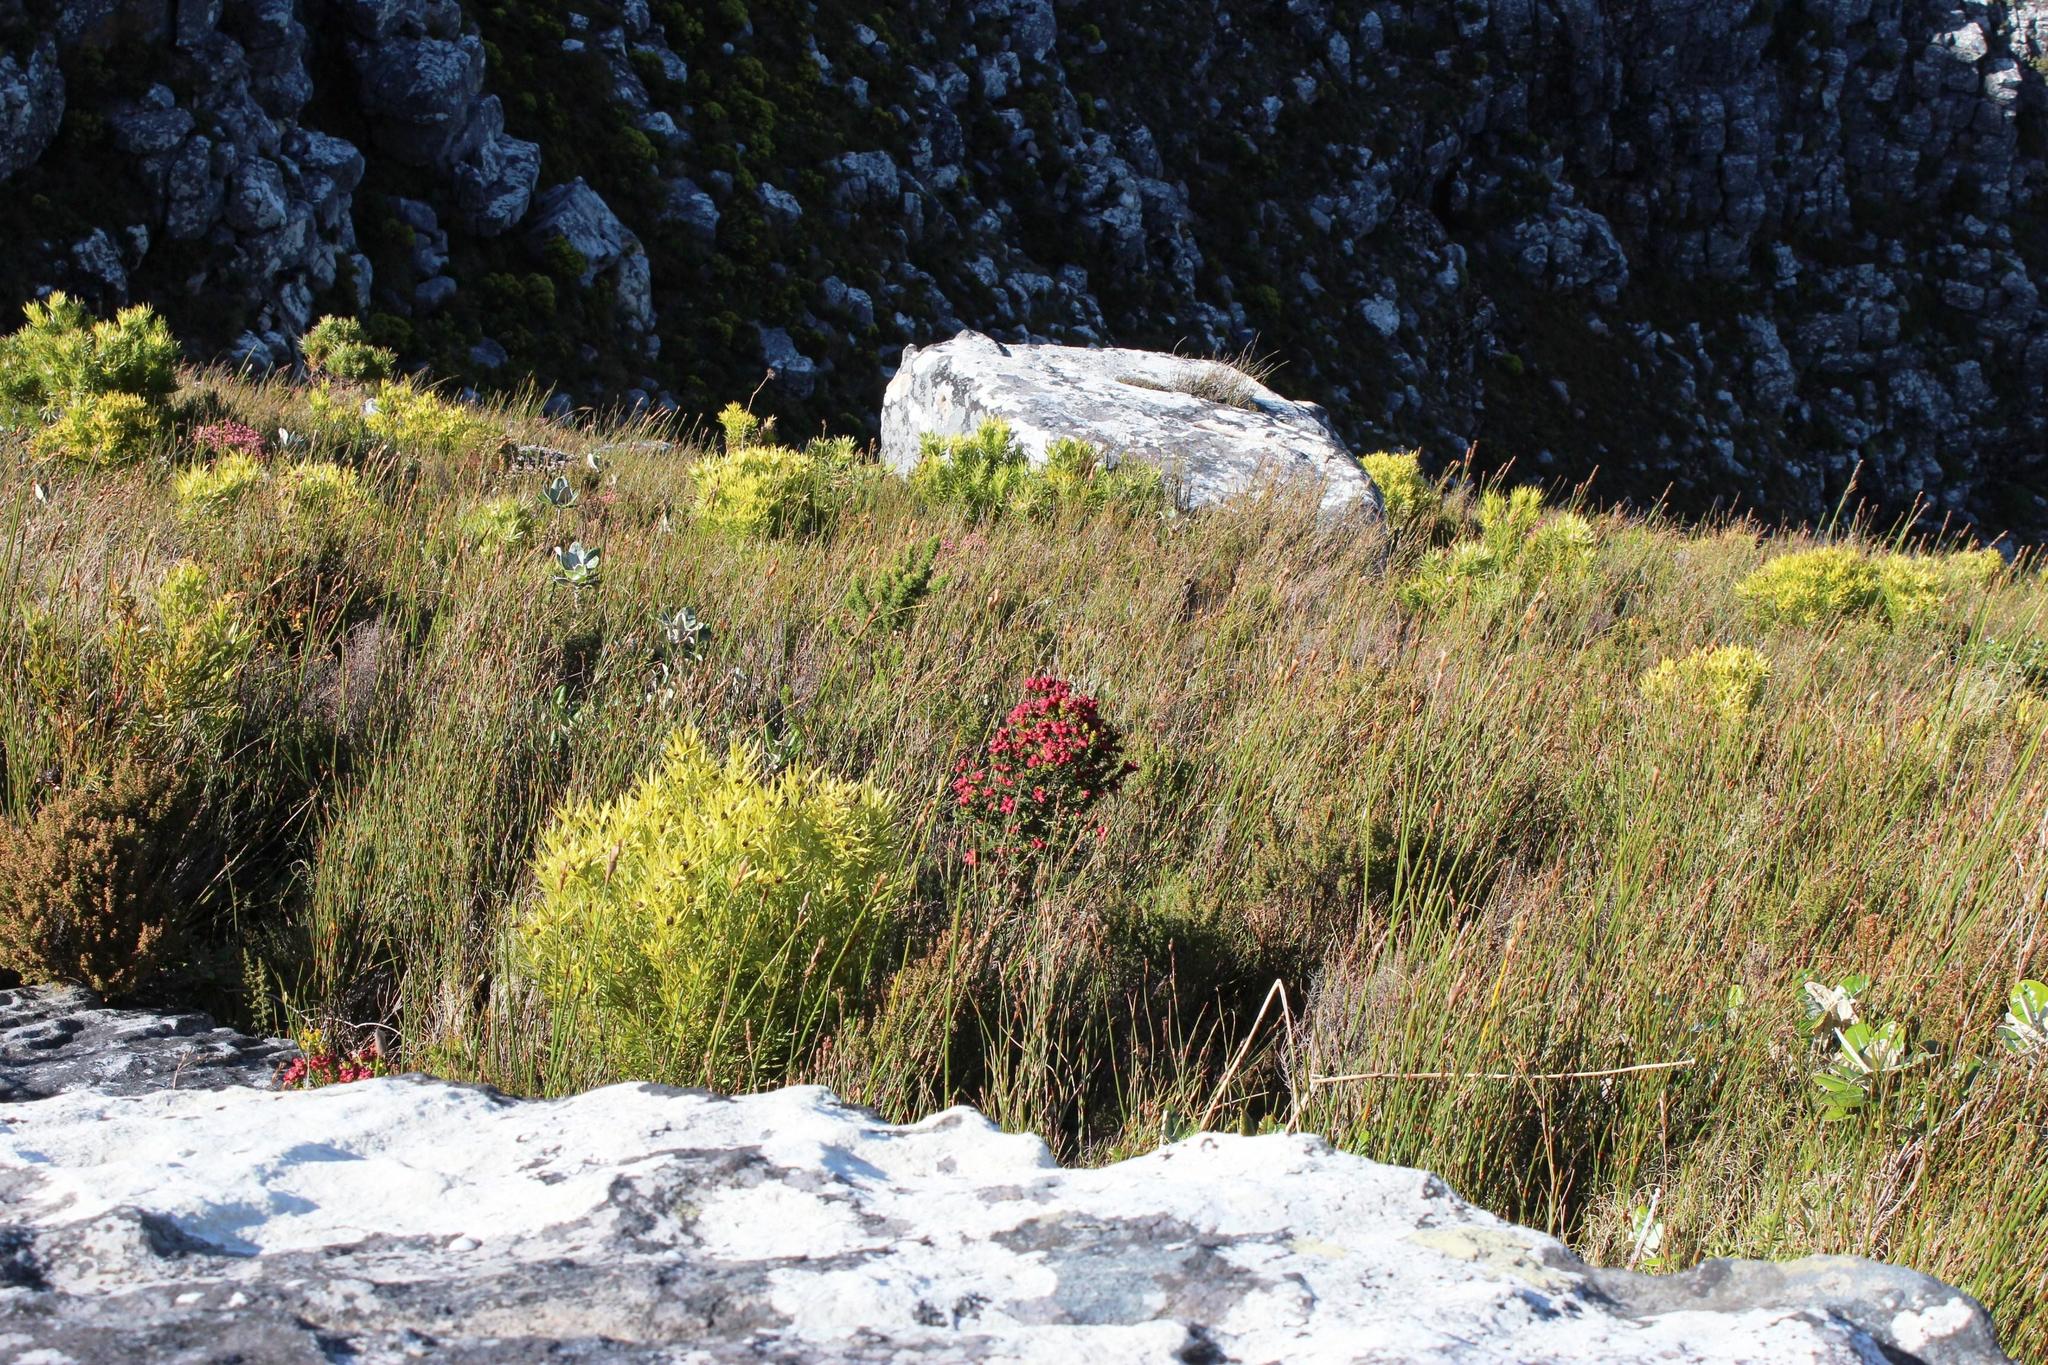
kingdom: Plantae
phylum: Tracheophyta
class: Magnoliopsida
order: Myrtales
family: Penaeaceae
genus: Brachysiphon
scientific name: Brachysiphon fucatus
